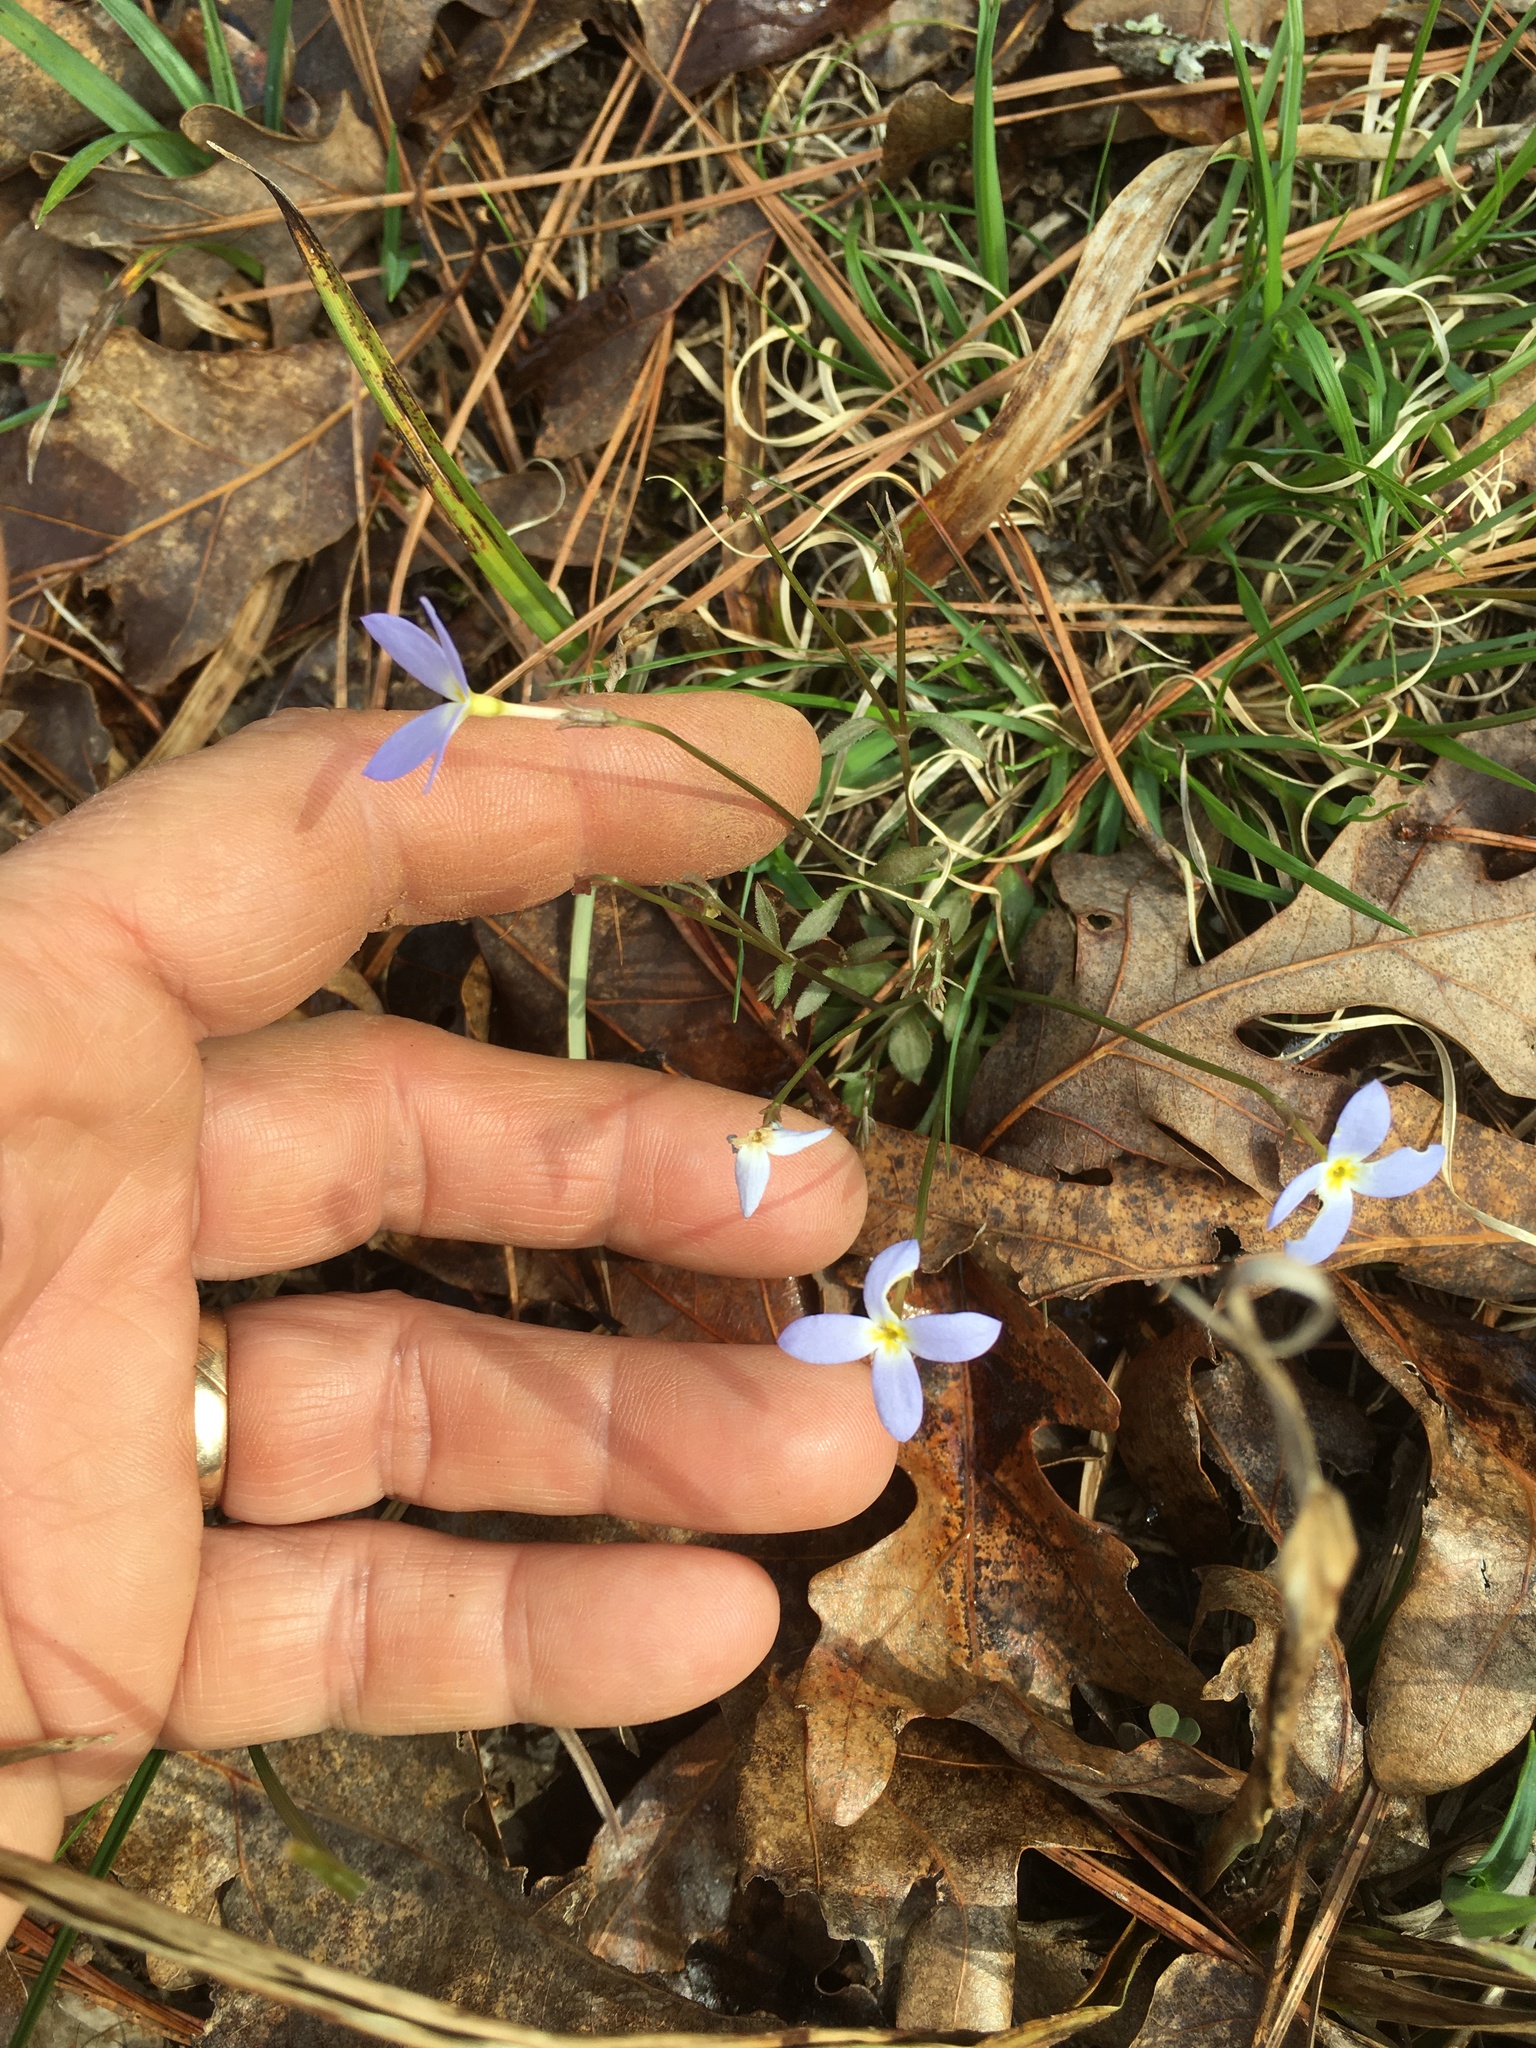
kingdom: Plantae
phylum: Tracheophyta
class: Magnoliopsida
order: Gentianales
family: Rubiaceae
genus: Houstonia
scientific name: Houstonia caerulea
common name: Bluets
